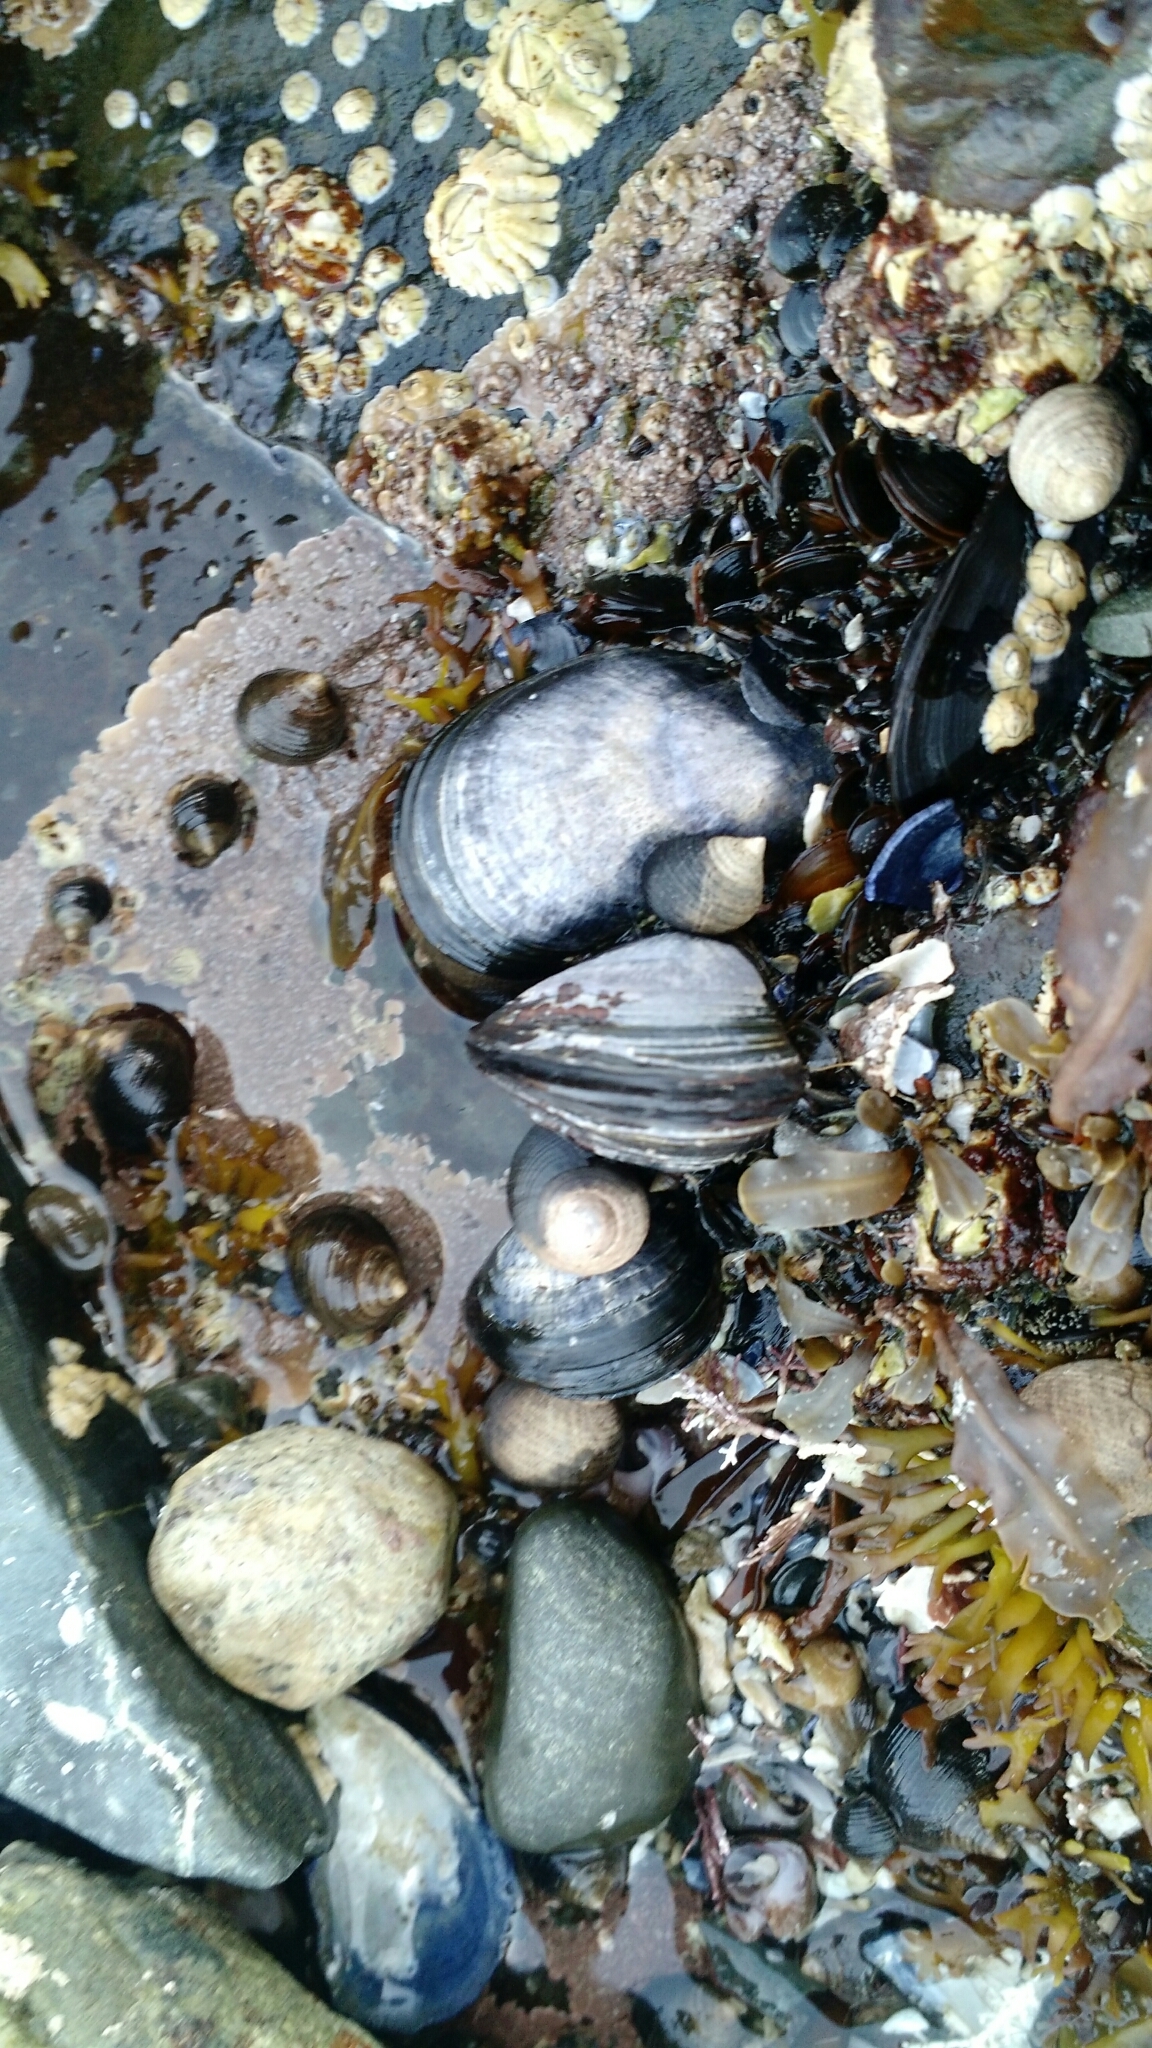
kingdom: Animalia
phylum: Mollusca
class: Bivalvia
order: Mytilida
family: Mytilidae
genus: Mytilus
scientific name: Mytilus edulis
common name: Blue mussel
